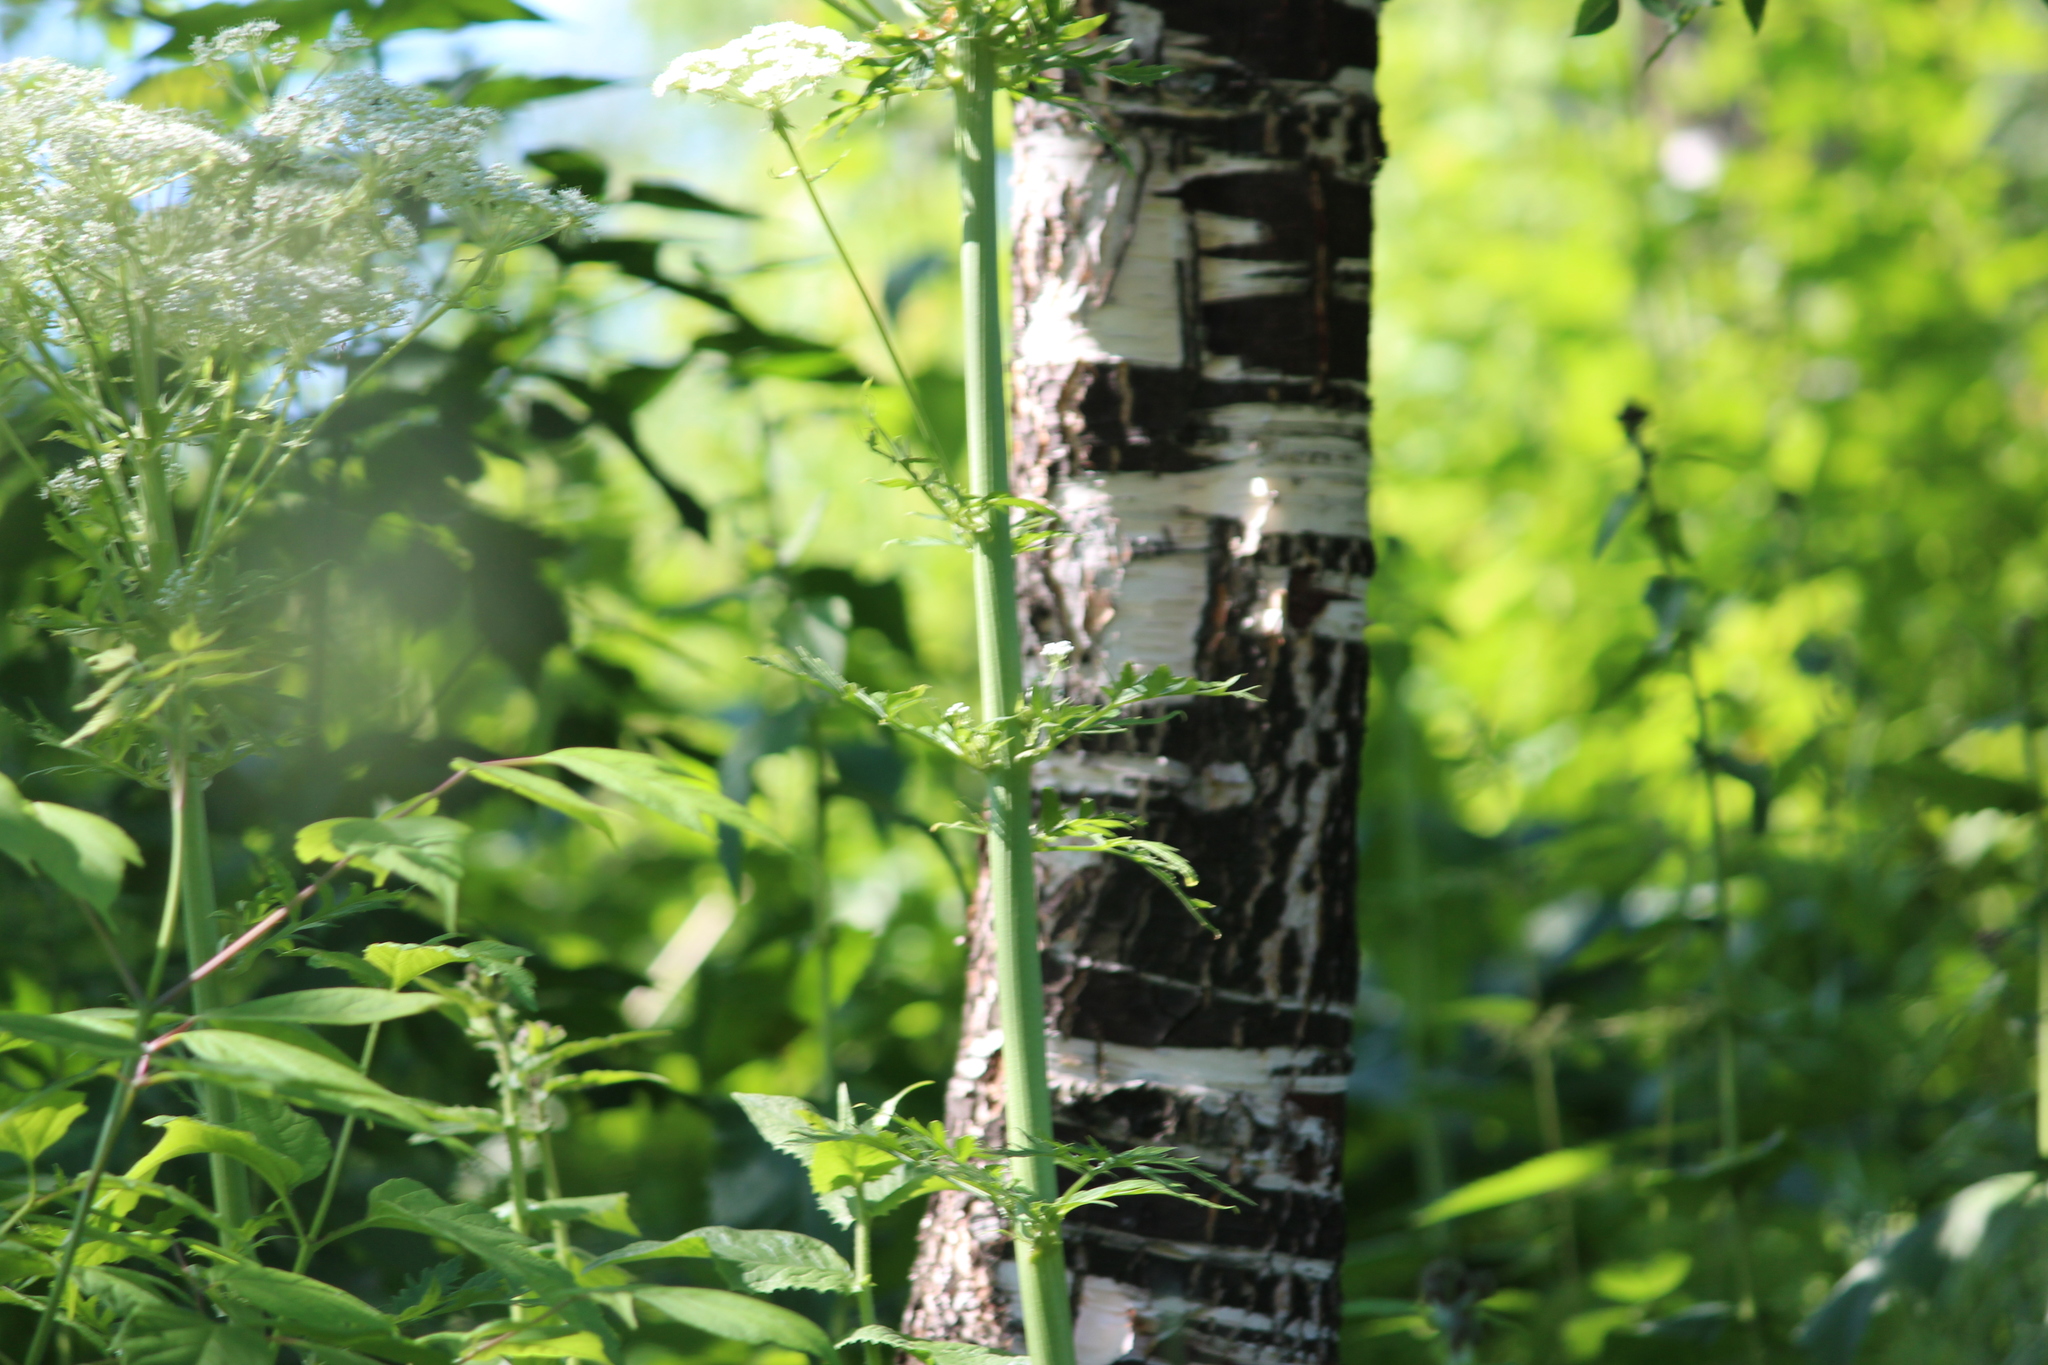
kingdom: Plantae
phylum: Tracheophyta
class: Magnoliopsida
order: Apiales
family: Apiaceae
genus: Pleurospermum
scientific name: Pleurospermum uralense
